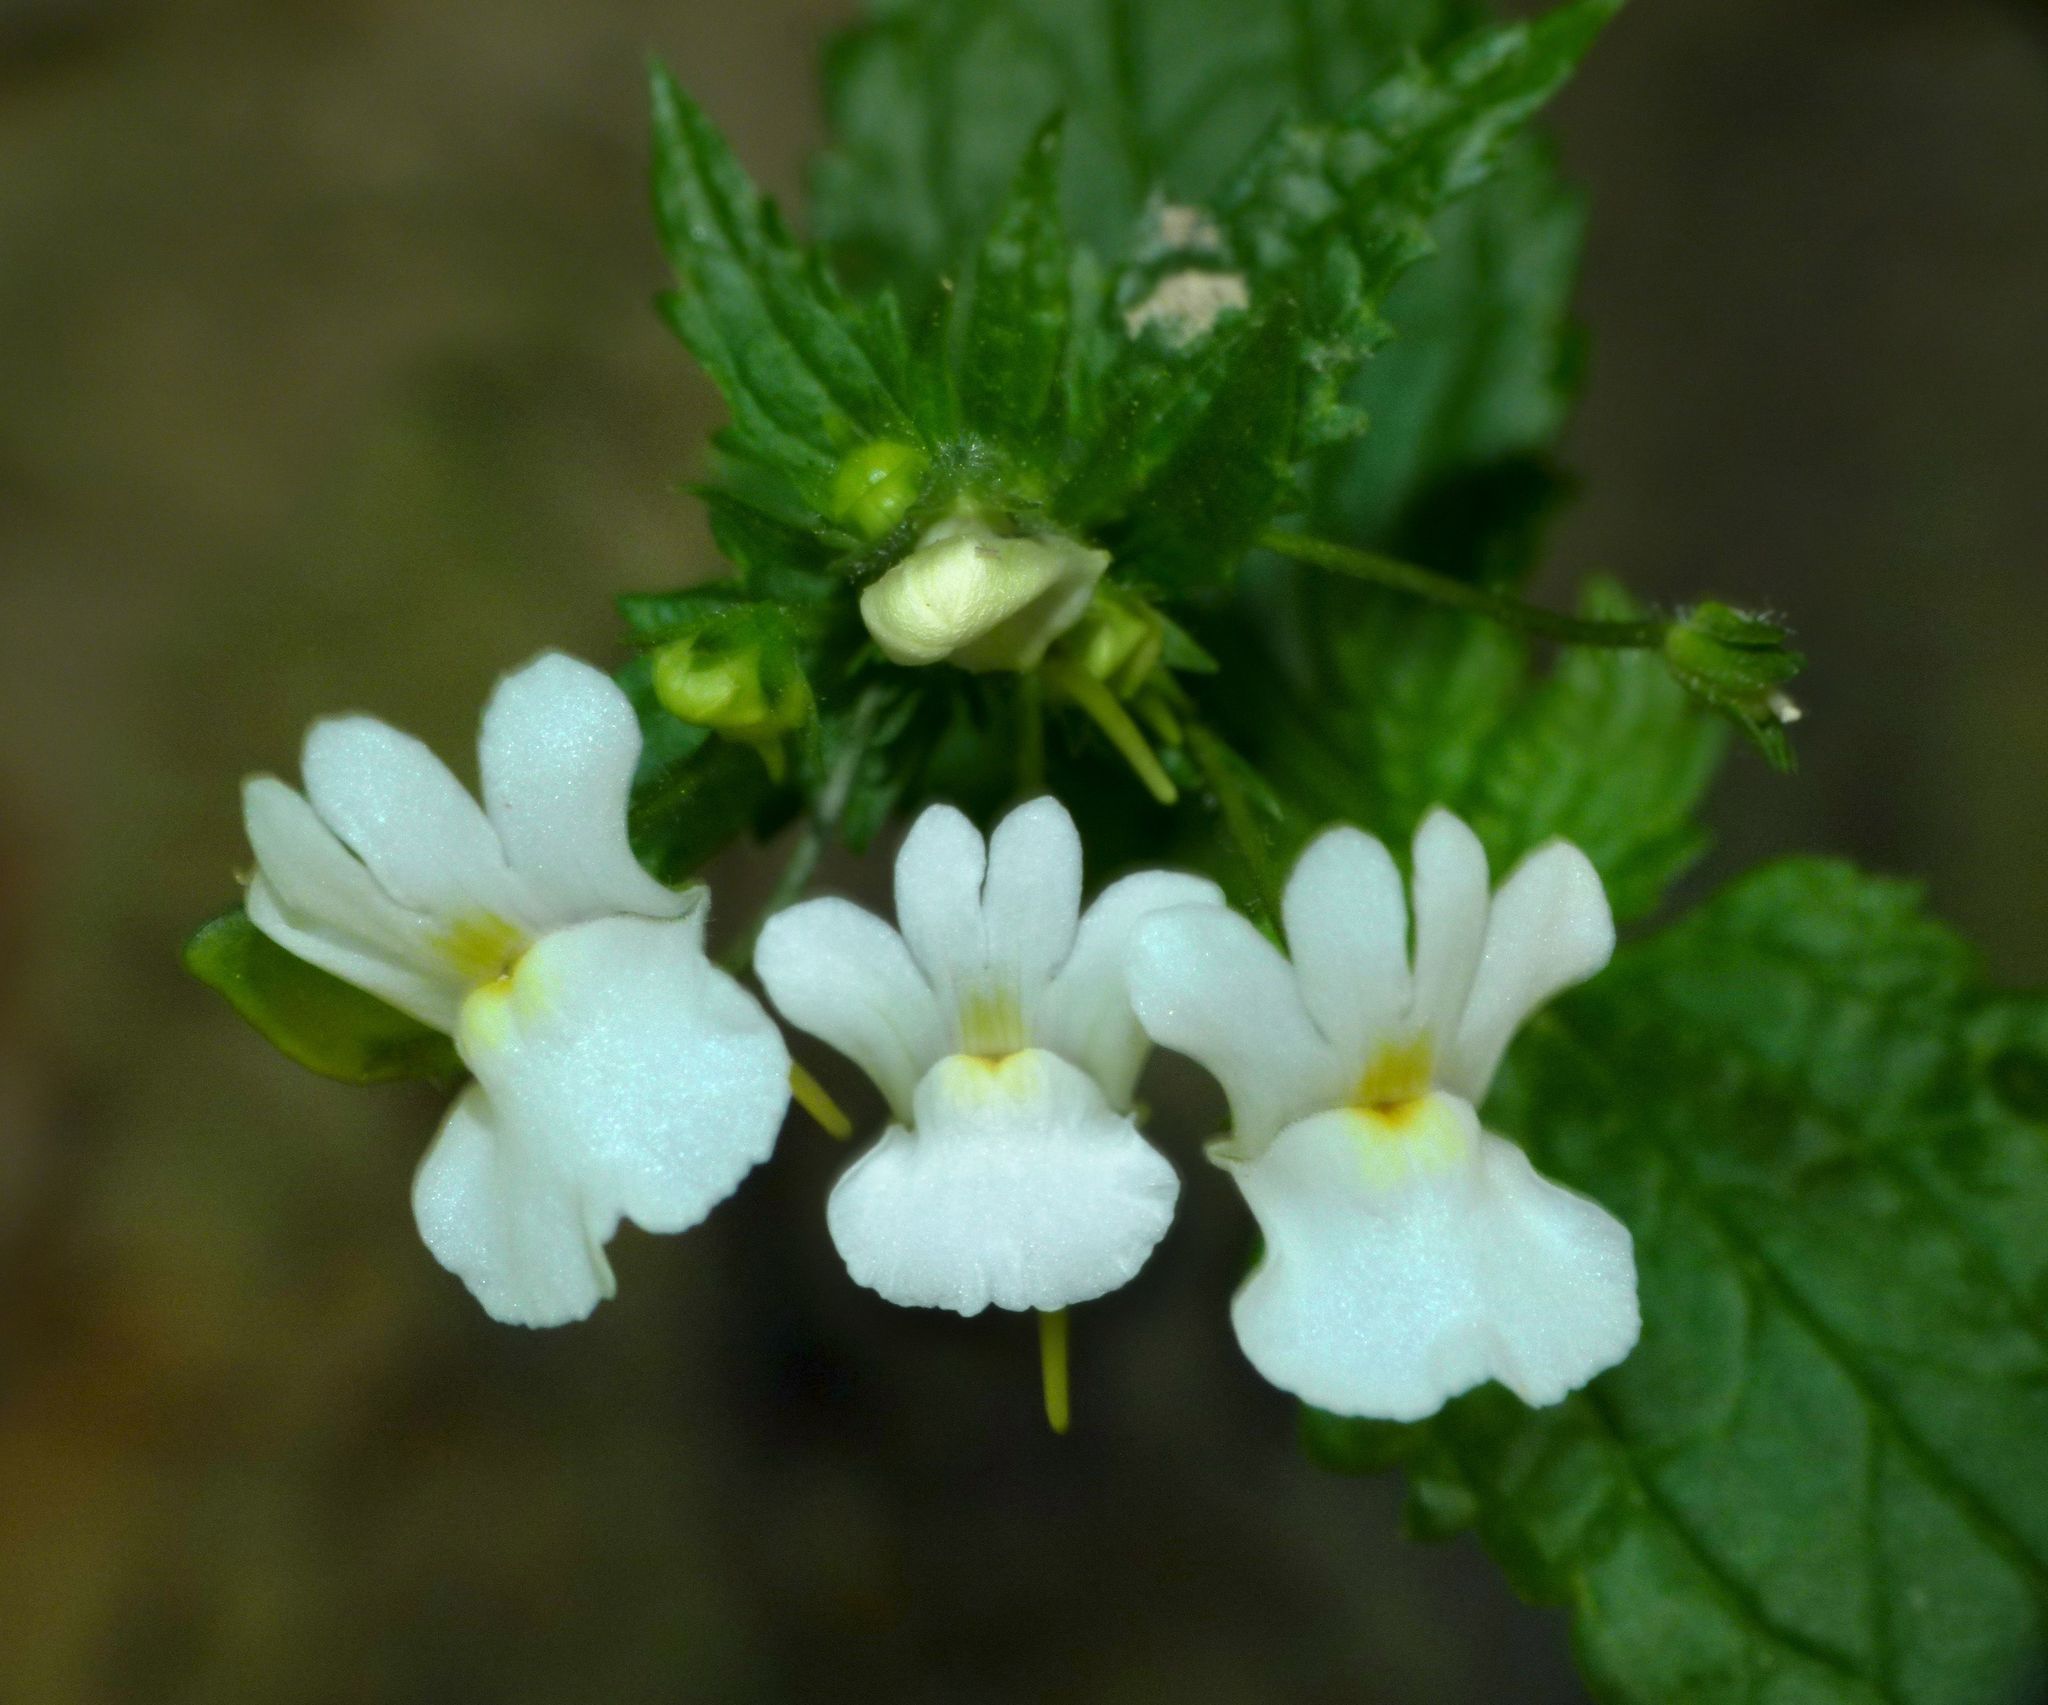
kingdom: Plantae
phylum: Tracheophyta
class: Magnoliopsida
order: Lamiales
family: Scrophulariaceae
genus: Nemesia
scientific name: Nemesia floribunda
